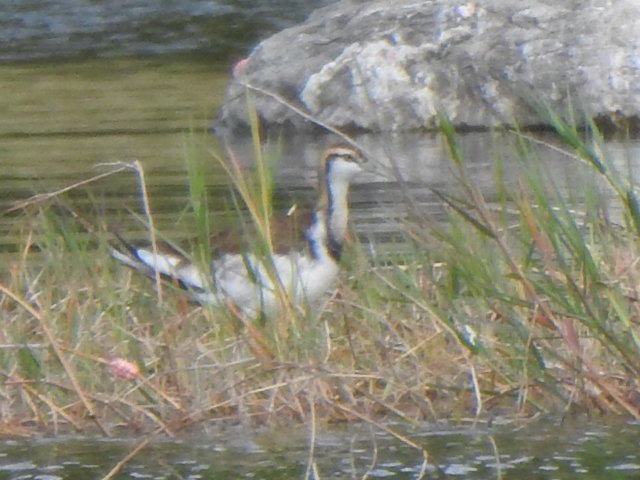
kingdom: Animalia
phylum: Chordata
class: Aves
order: Charadriiformes
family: Jacanidae
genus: Hydrophasianus
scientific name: Hydrophasianus chirurgus
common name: Pheasant-tailed jacana
